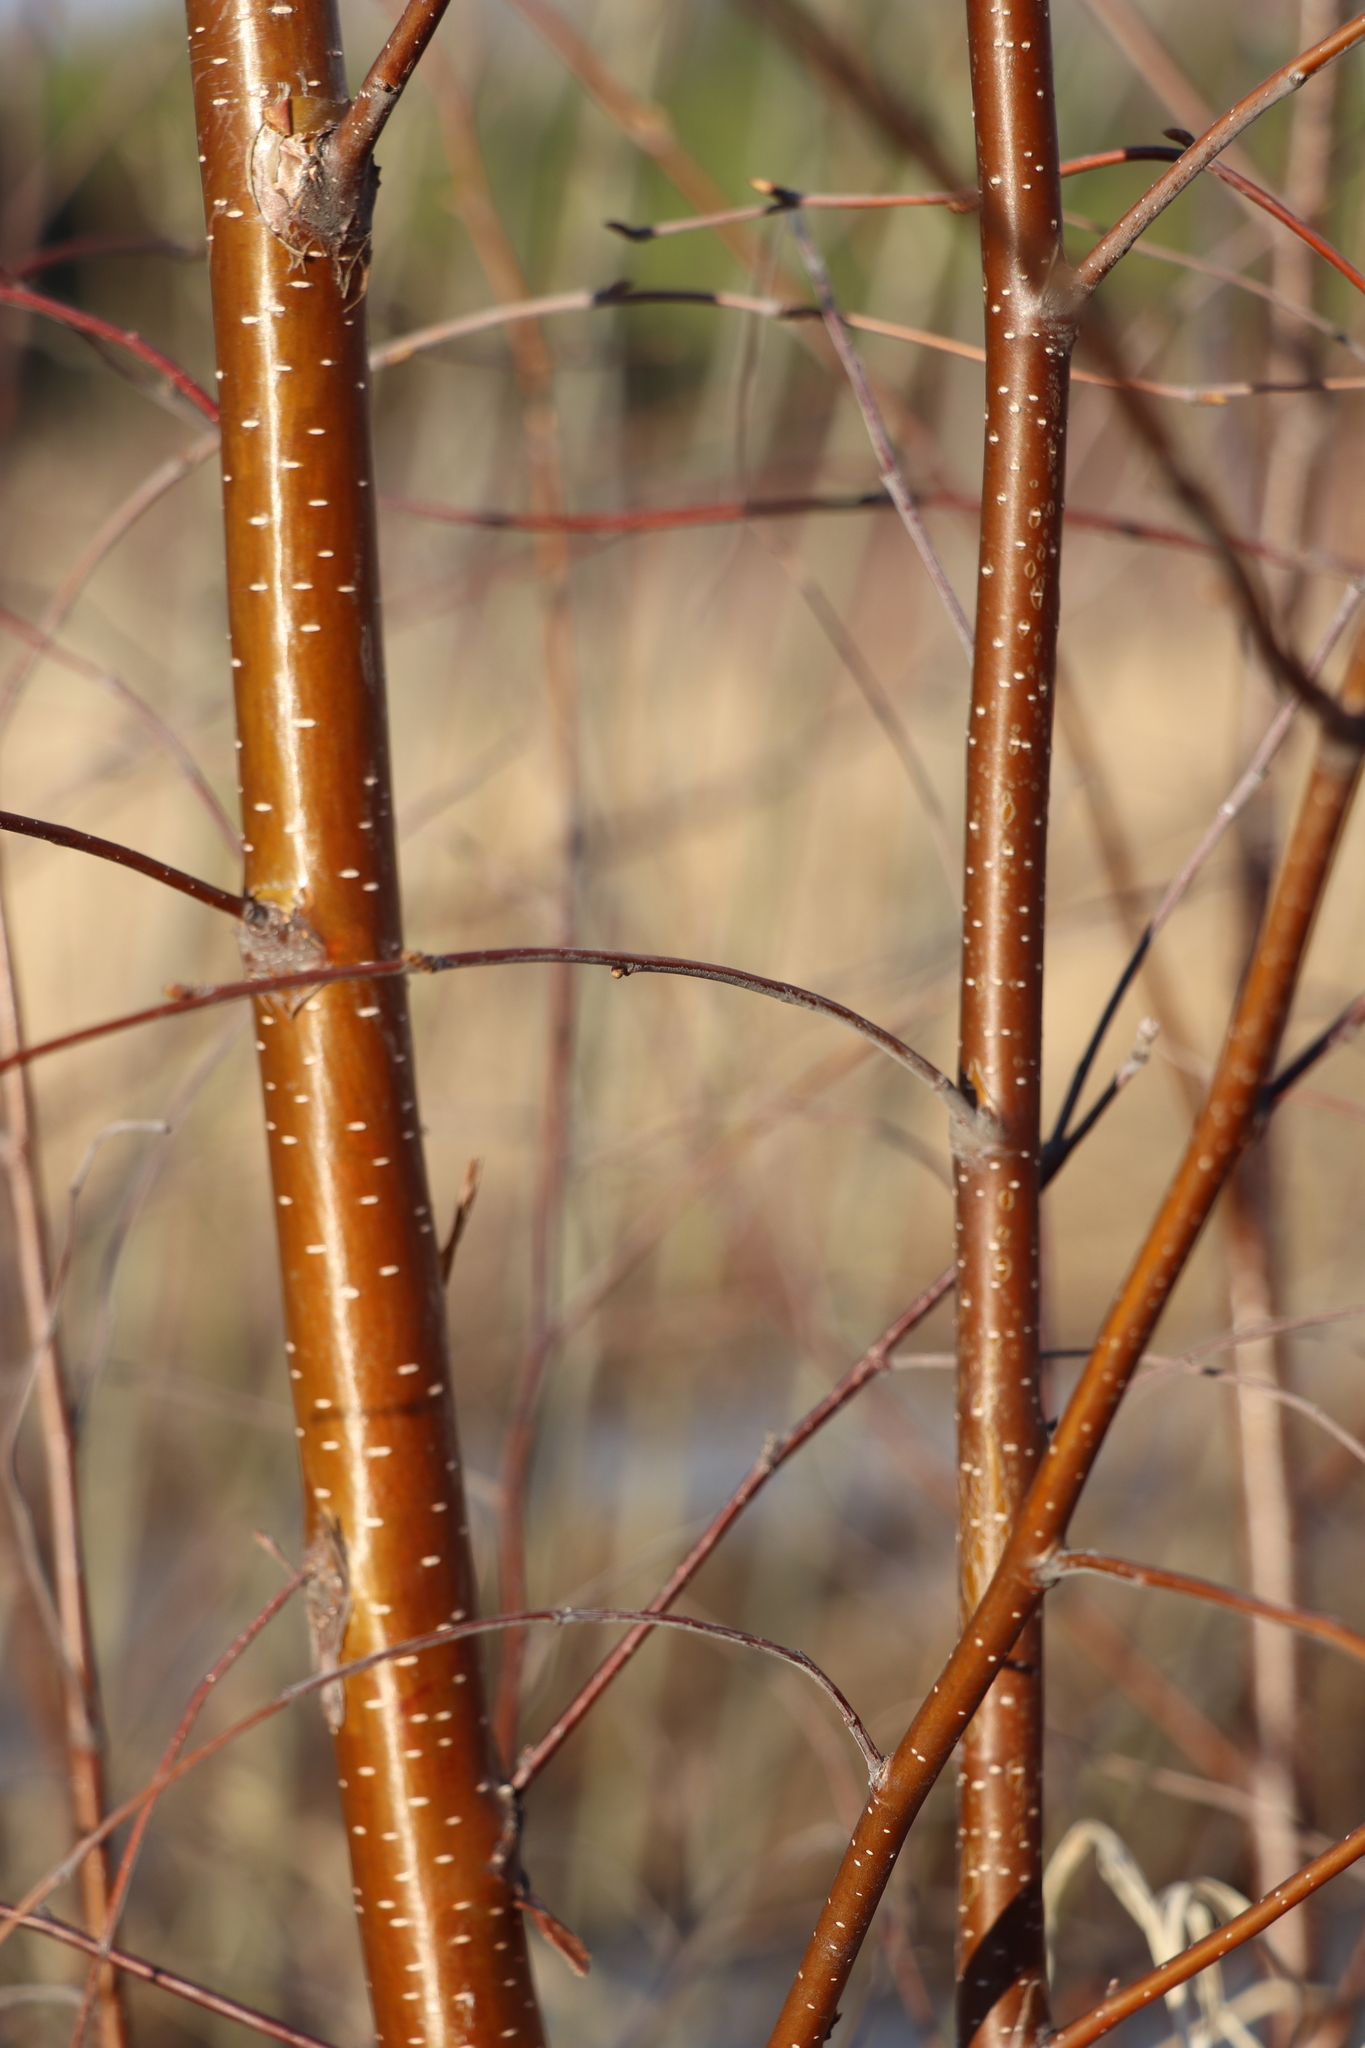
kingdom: Plantae
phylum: Tracheophyta
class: Magnoliopsida
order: Fagales
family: Betulaceae
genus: Betula
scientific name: Betula pubescens
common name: Downy birch
